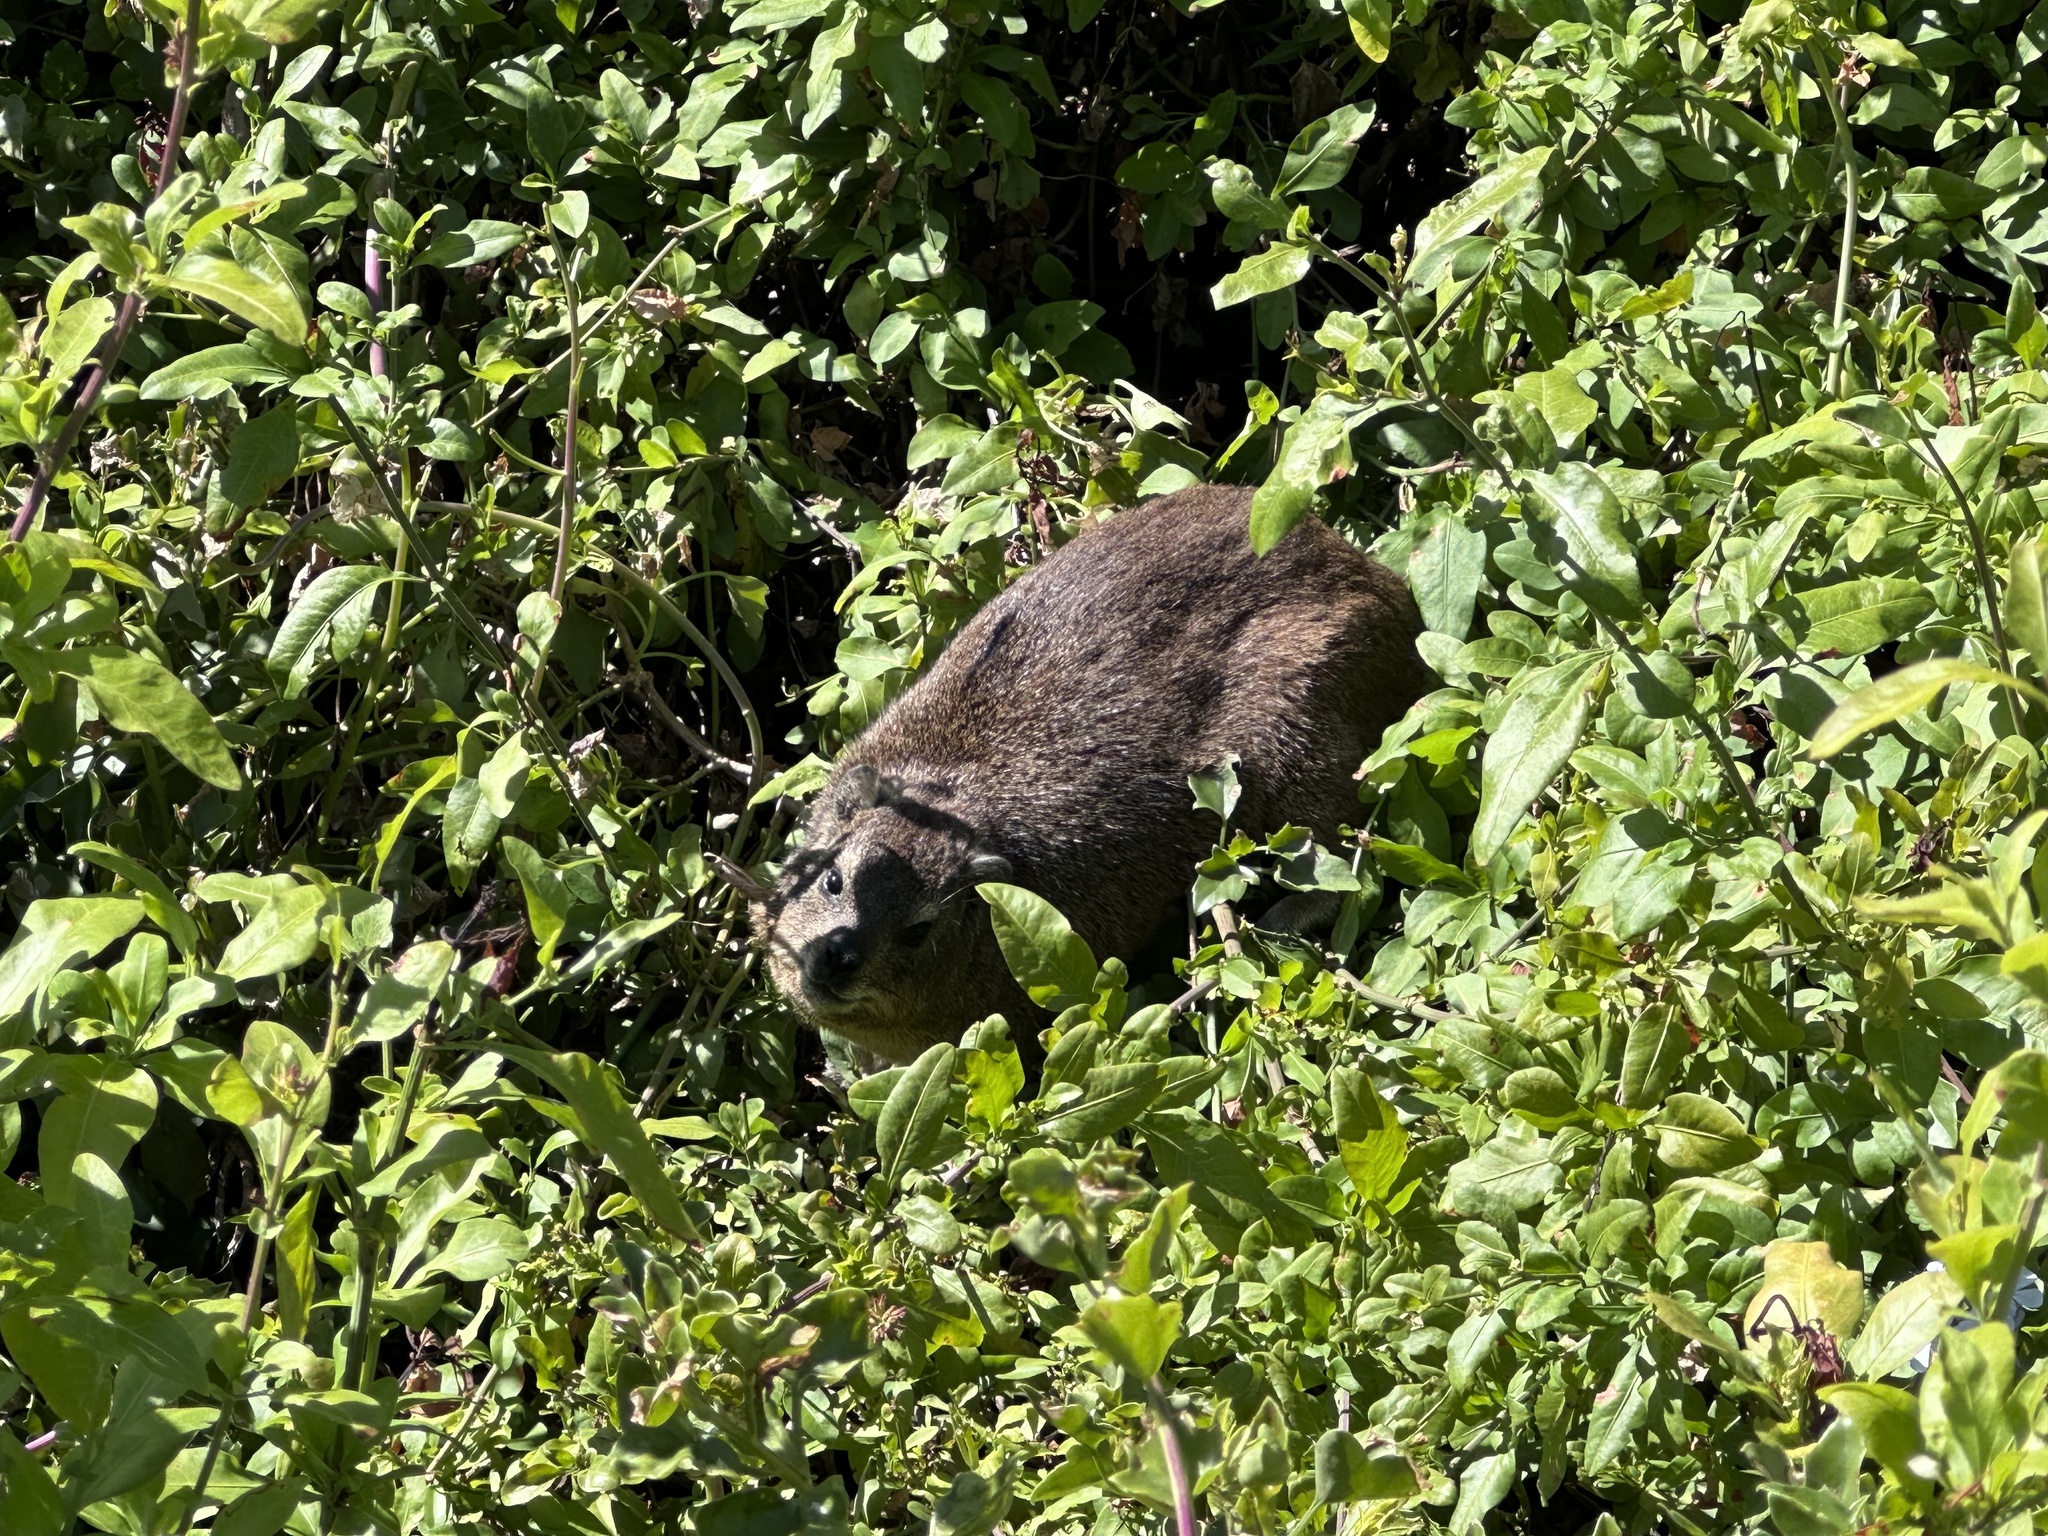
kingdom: Animalia
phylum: Chordata
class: Mammalia
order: Hyracoidea
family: Procaviidae
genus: Procavia
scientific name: Procavia capensis
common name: Rock hyrax
